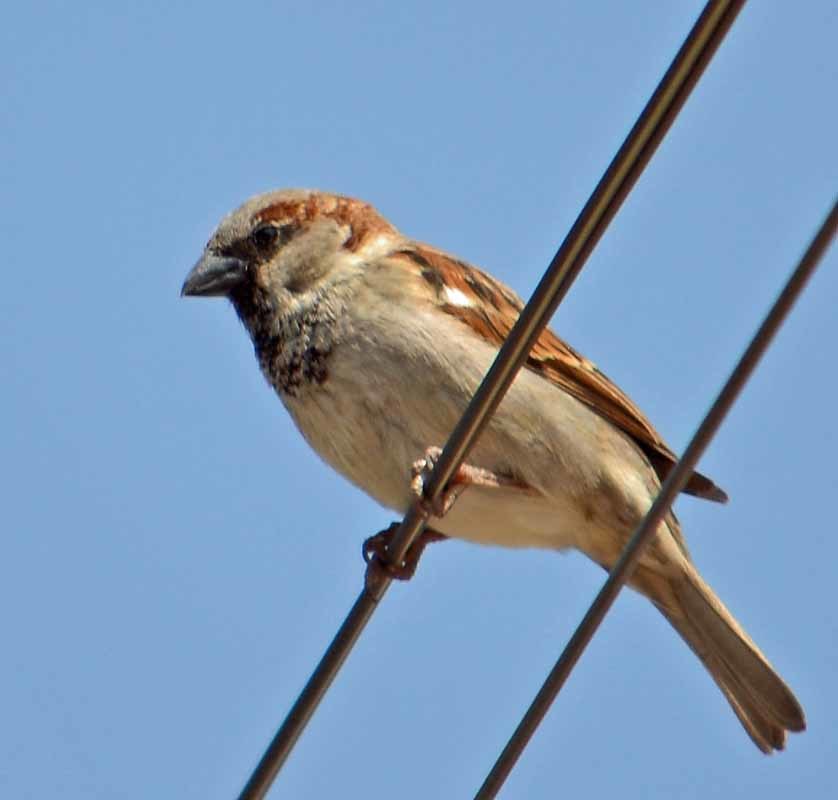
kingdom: Animalia
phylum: Chordata
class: Aves
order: Passeriformes
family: Passeridae
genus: Passer
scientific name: Passer domesticus
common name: House sparrow
